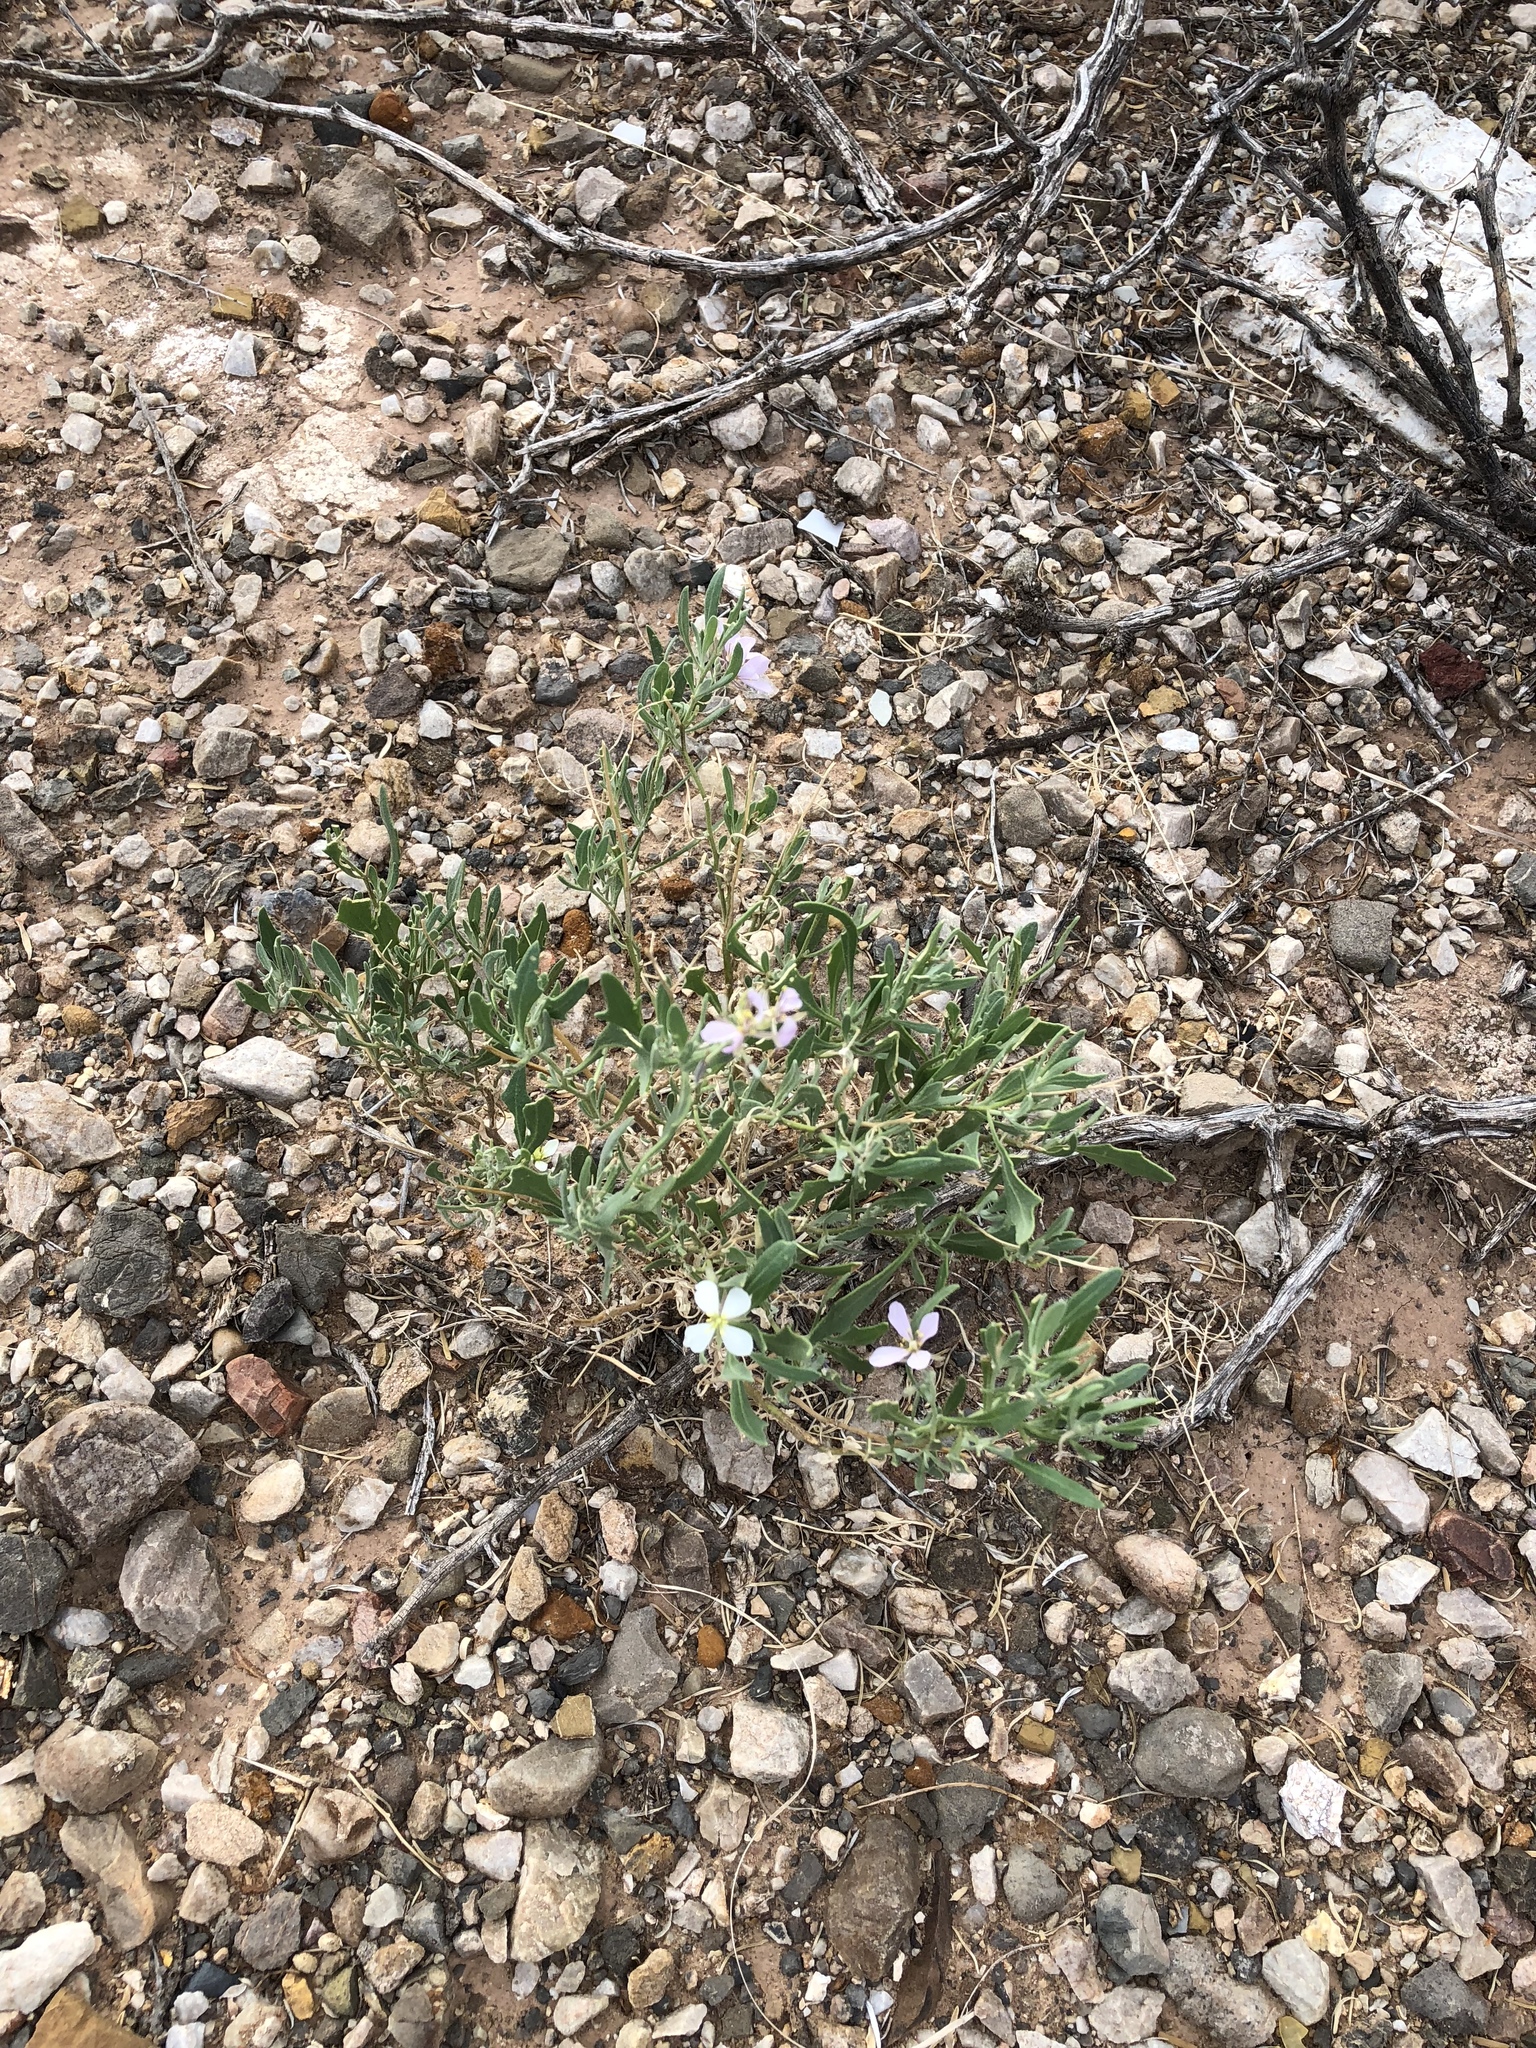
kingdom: Plantae
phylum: Tracheophyta
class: Magnoliopsida
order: Brassicales
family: Brassicaceae
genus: Nerisyrenia
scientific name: Nerisyrenia camporum
